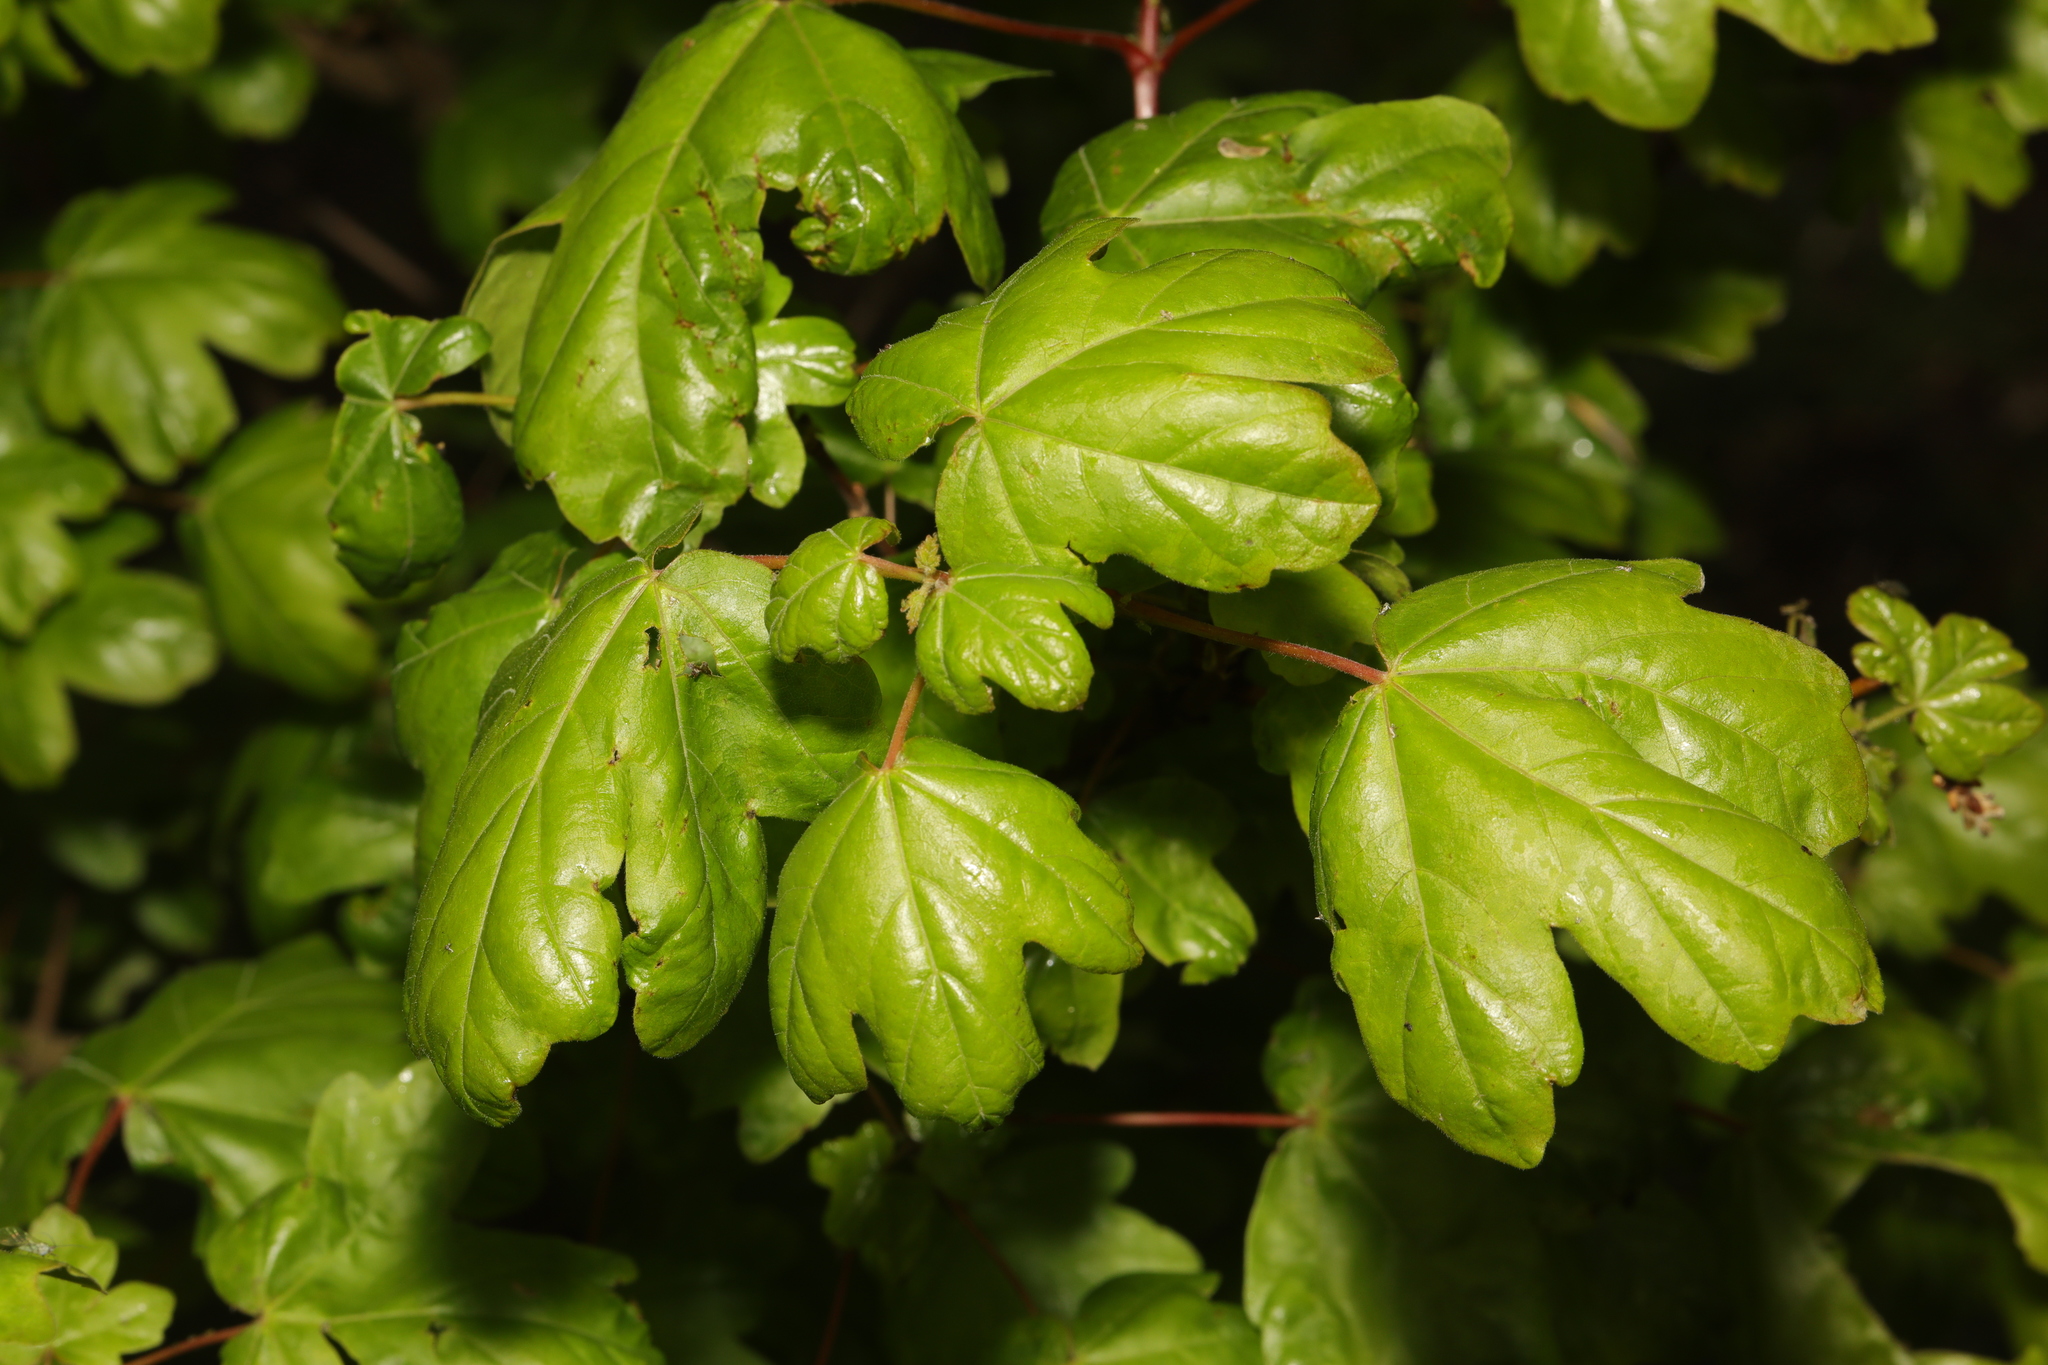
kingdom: Plantae
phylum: Tracheophyta
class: Magnoliopsida
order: Sapindales
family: Sapindaceae
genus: Acer
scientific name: Acer campestre
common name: Field maple
